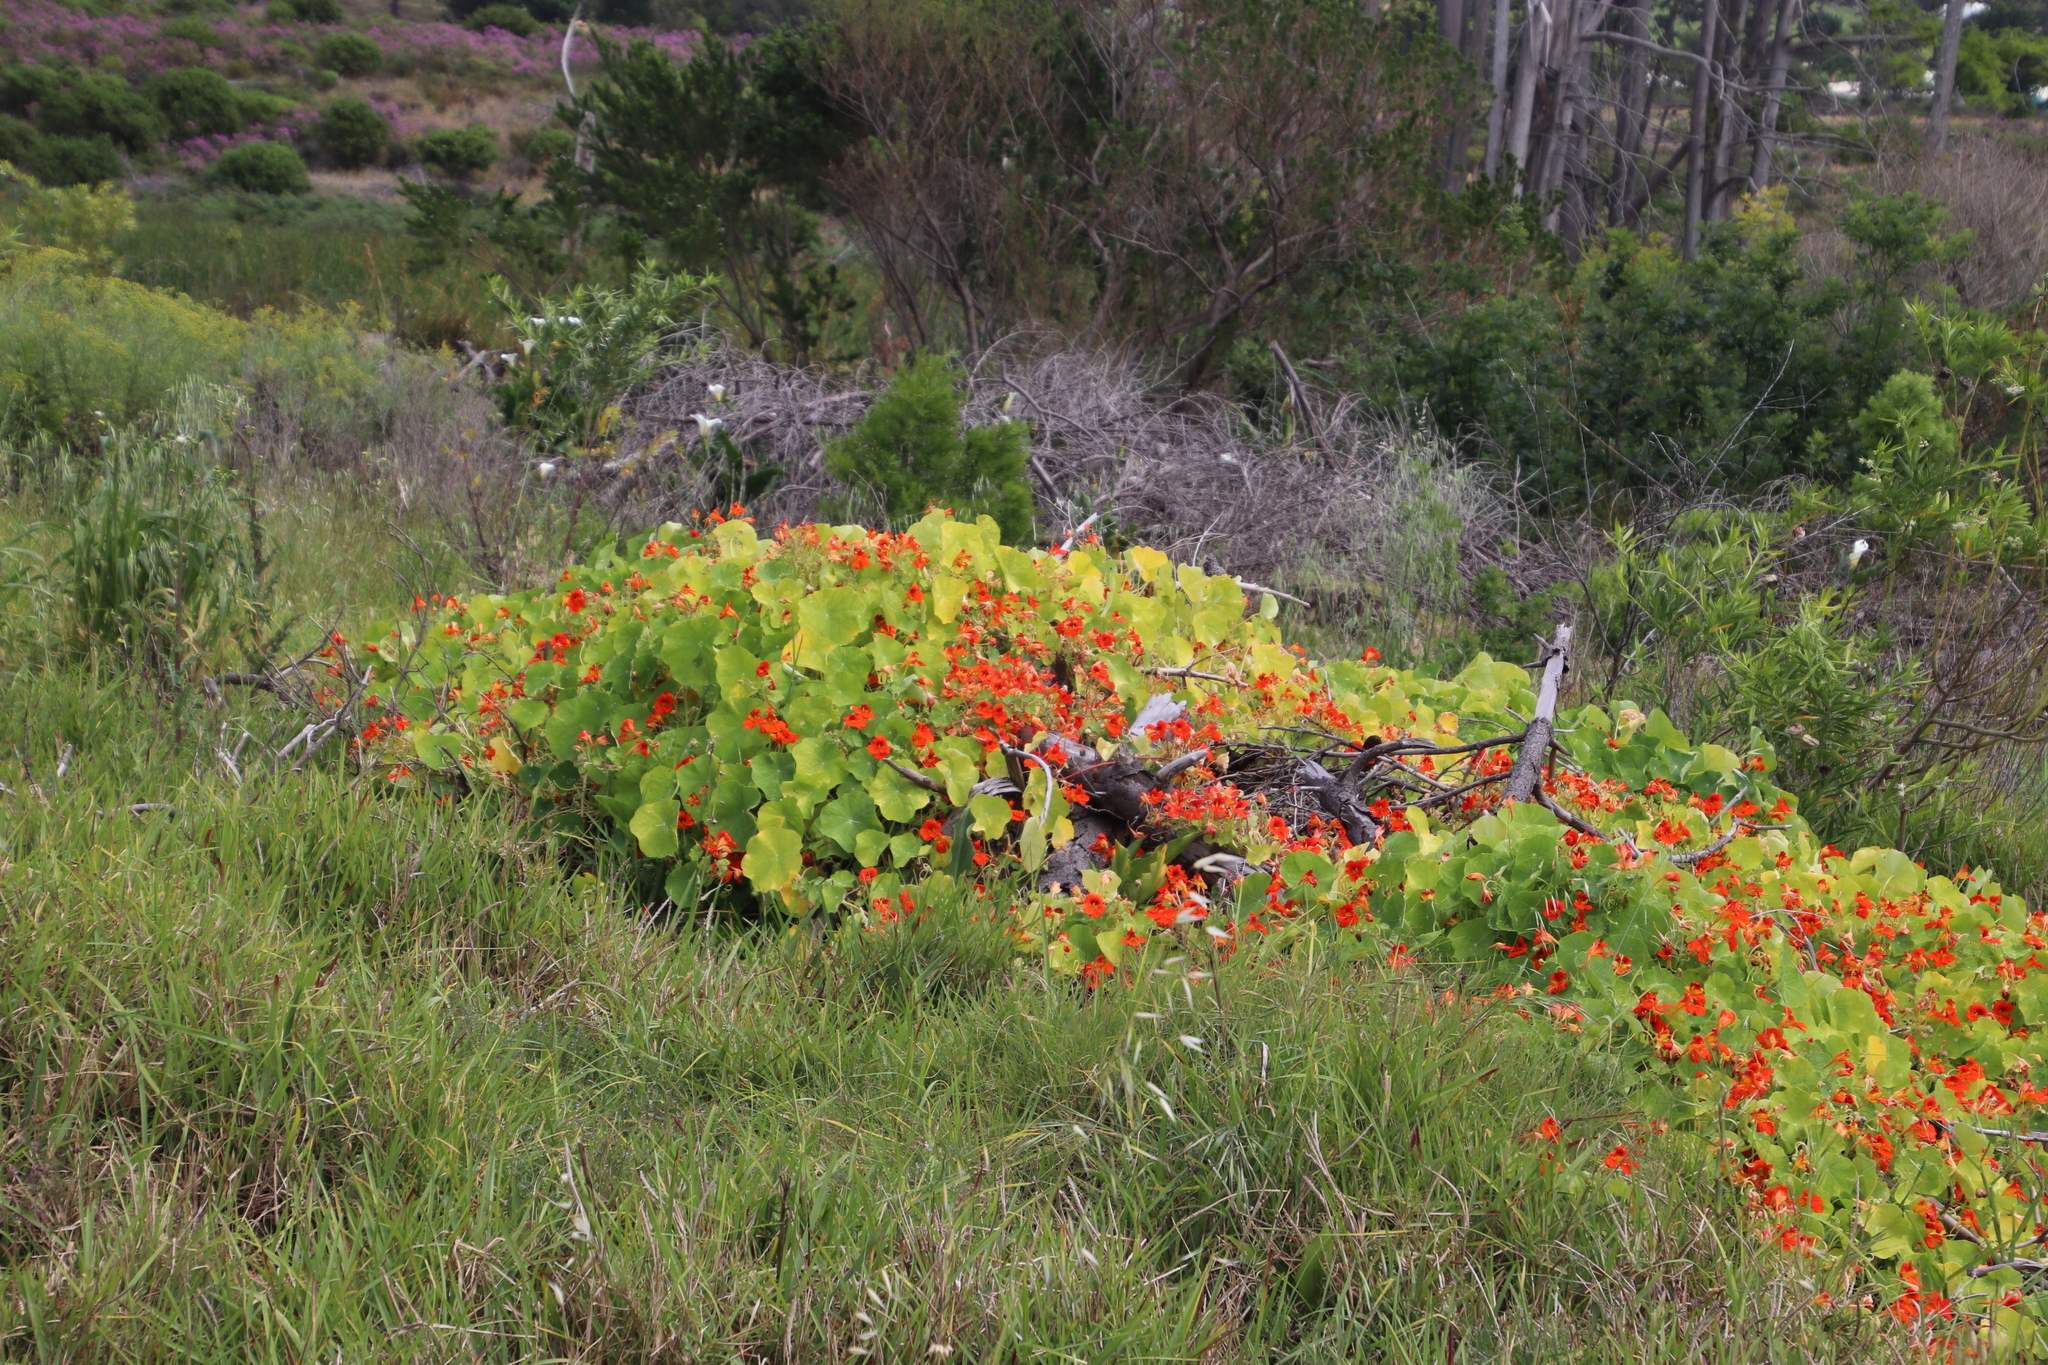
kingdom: Plantae
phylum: Tracheophyta
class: Magnoliopsida
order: Brassicales
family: Tropaeolaceae
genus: Tropaeolum
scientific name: Tropaeolum majus
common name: Nasturtium
